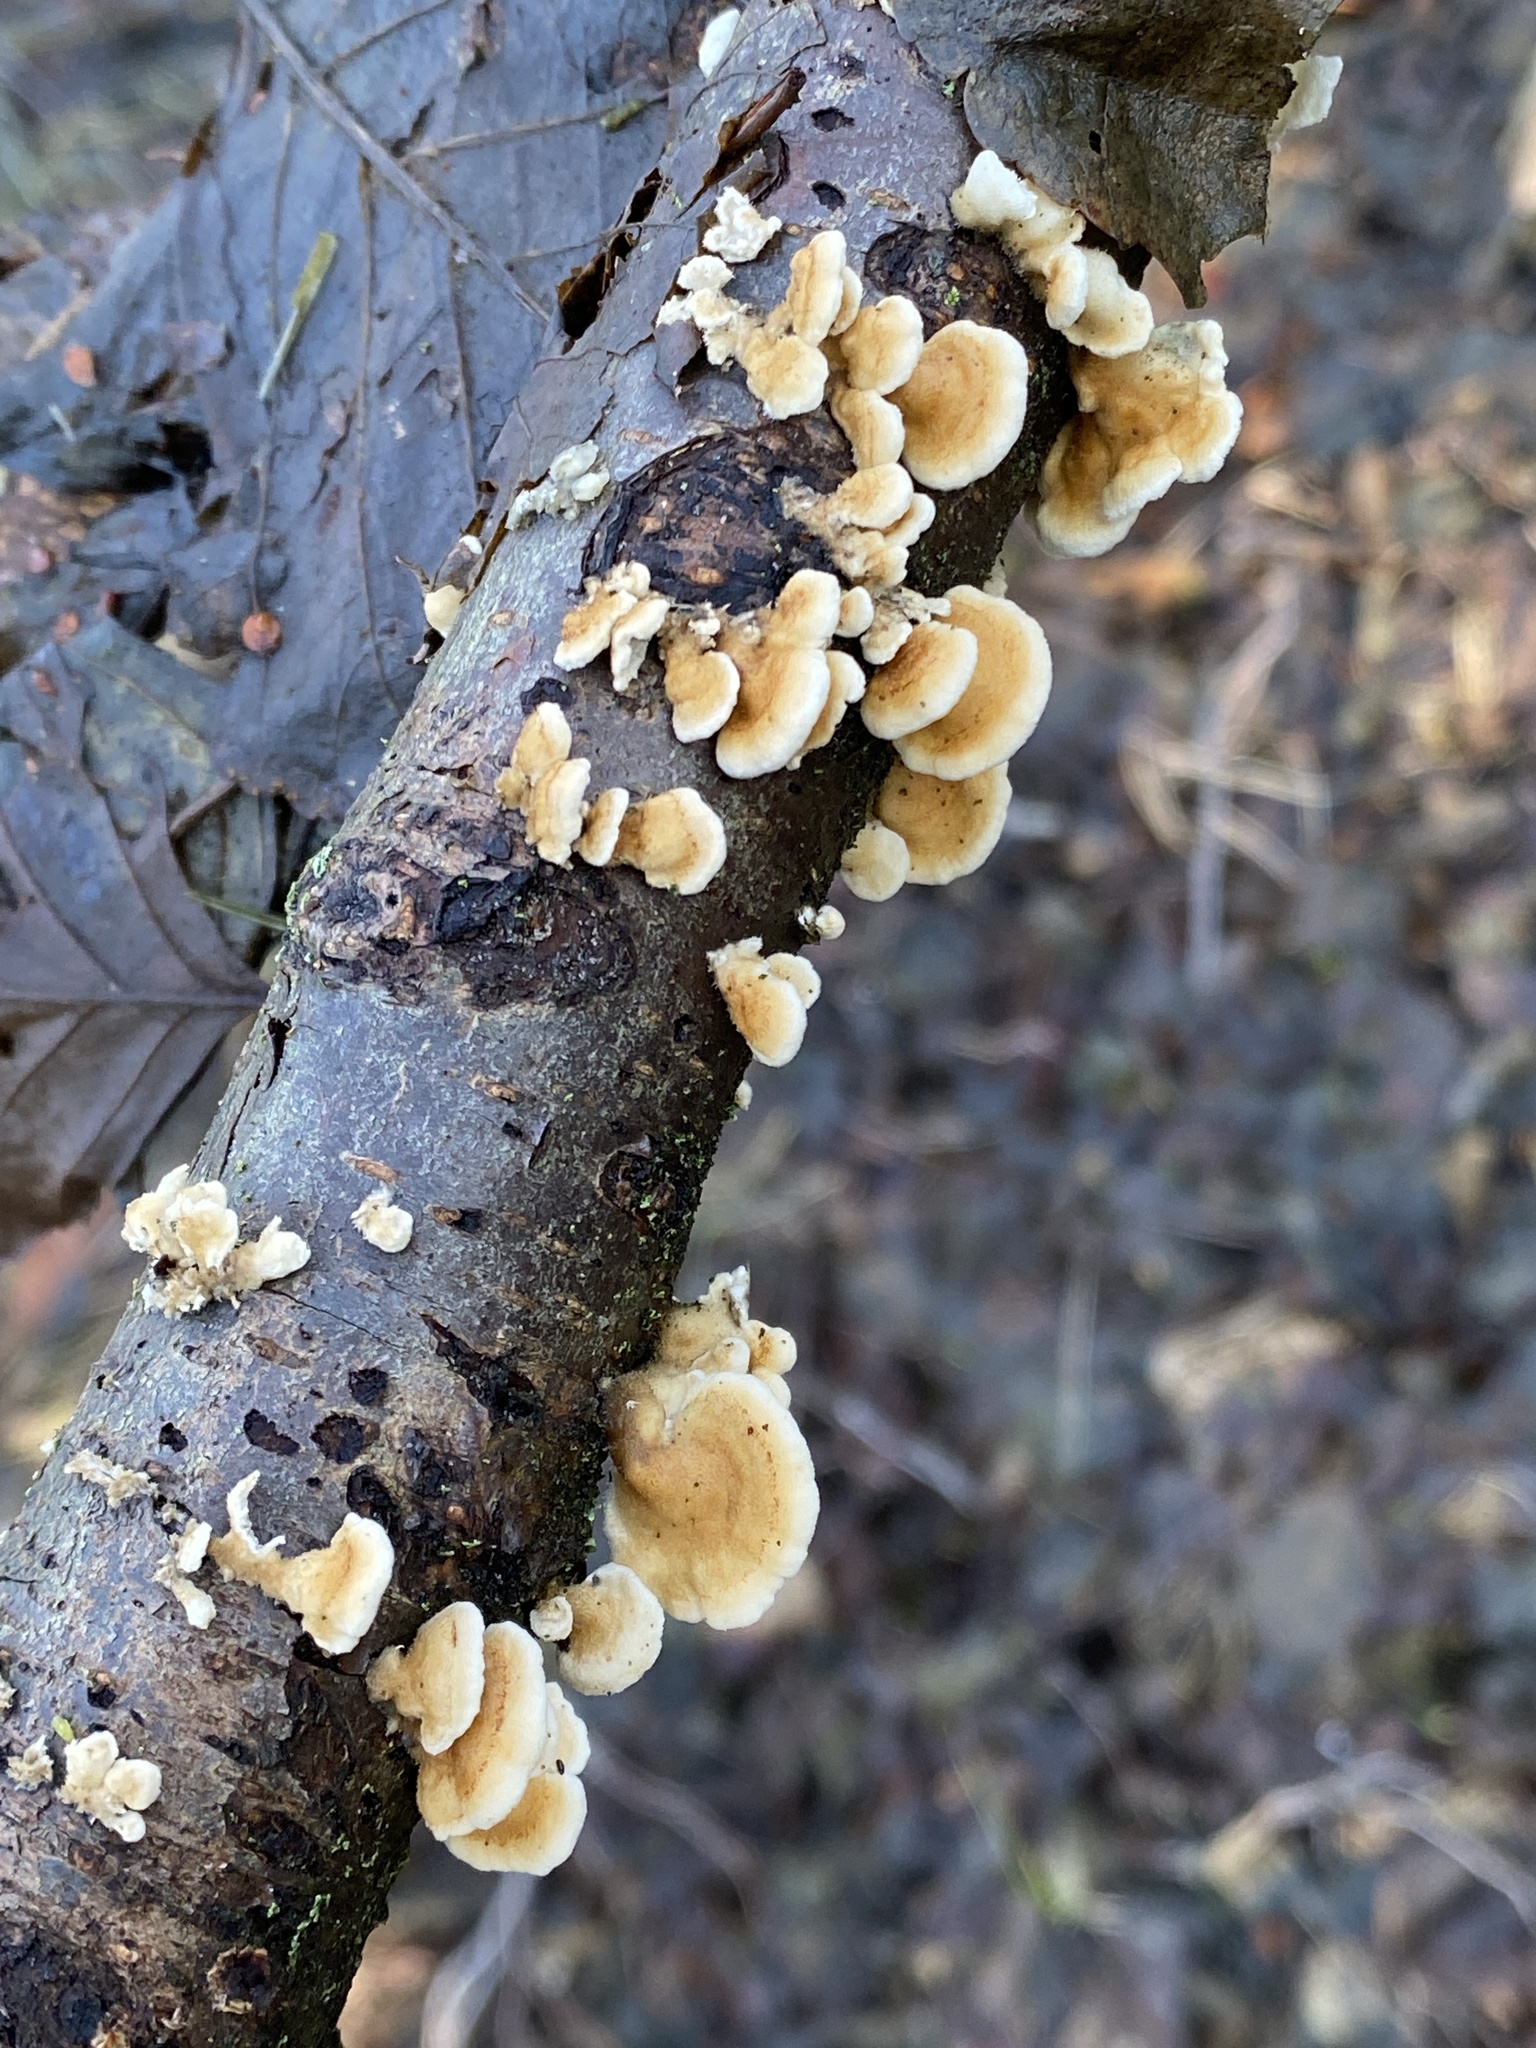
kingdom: Fungi
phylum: Basidiomycota
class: Agaricomycetes
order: Amylocorticiales
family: Amylocorticiaceae
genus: Plicaturopsis
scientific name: Plicaturopsis crispa
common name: Crimped gill
